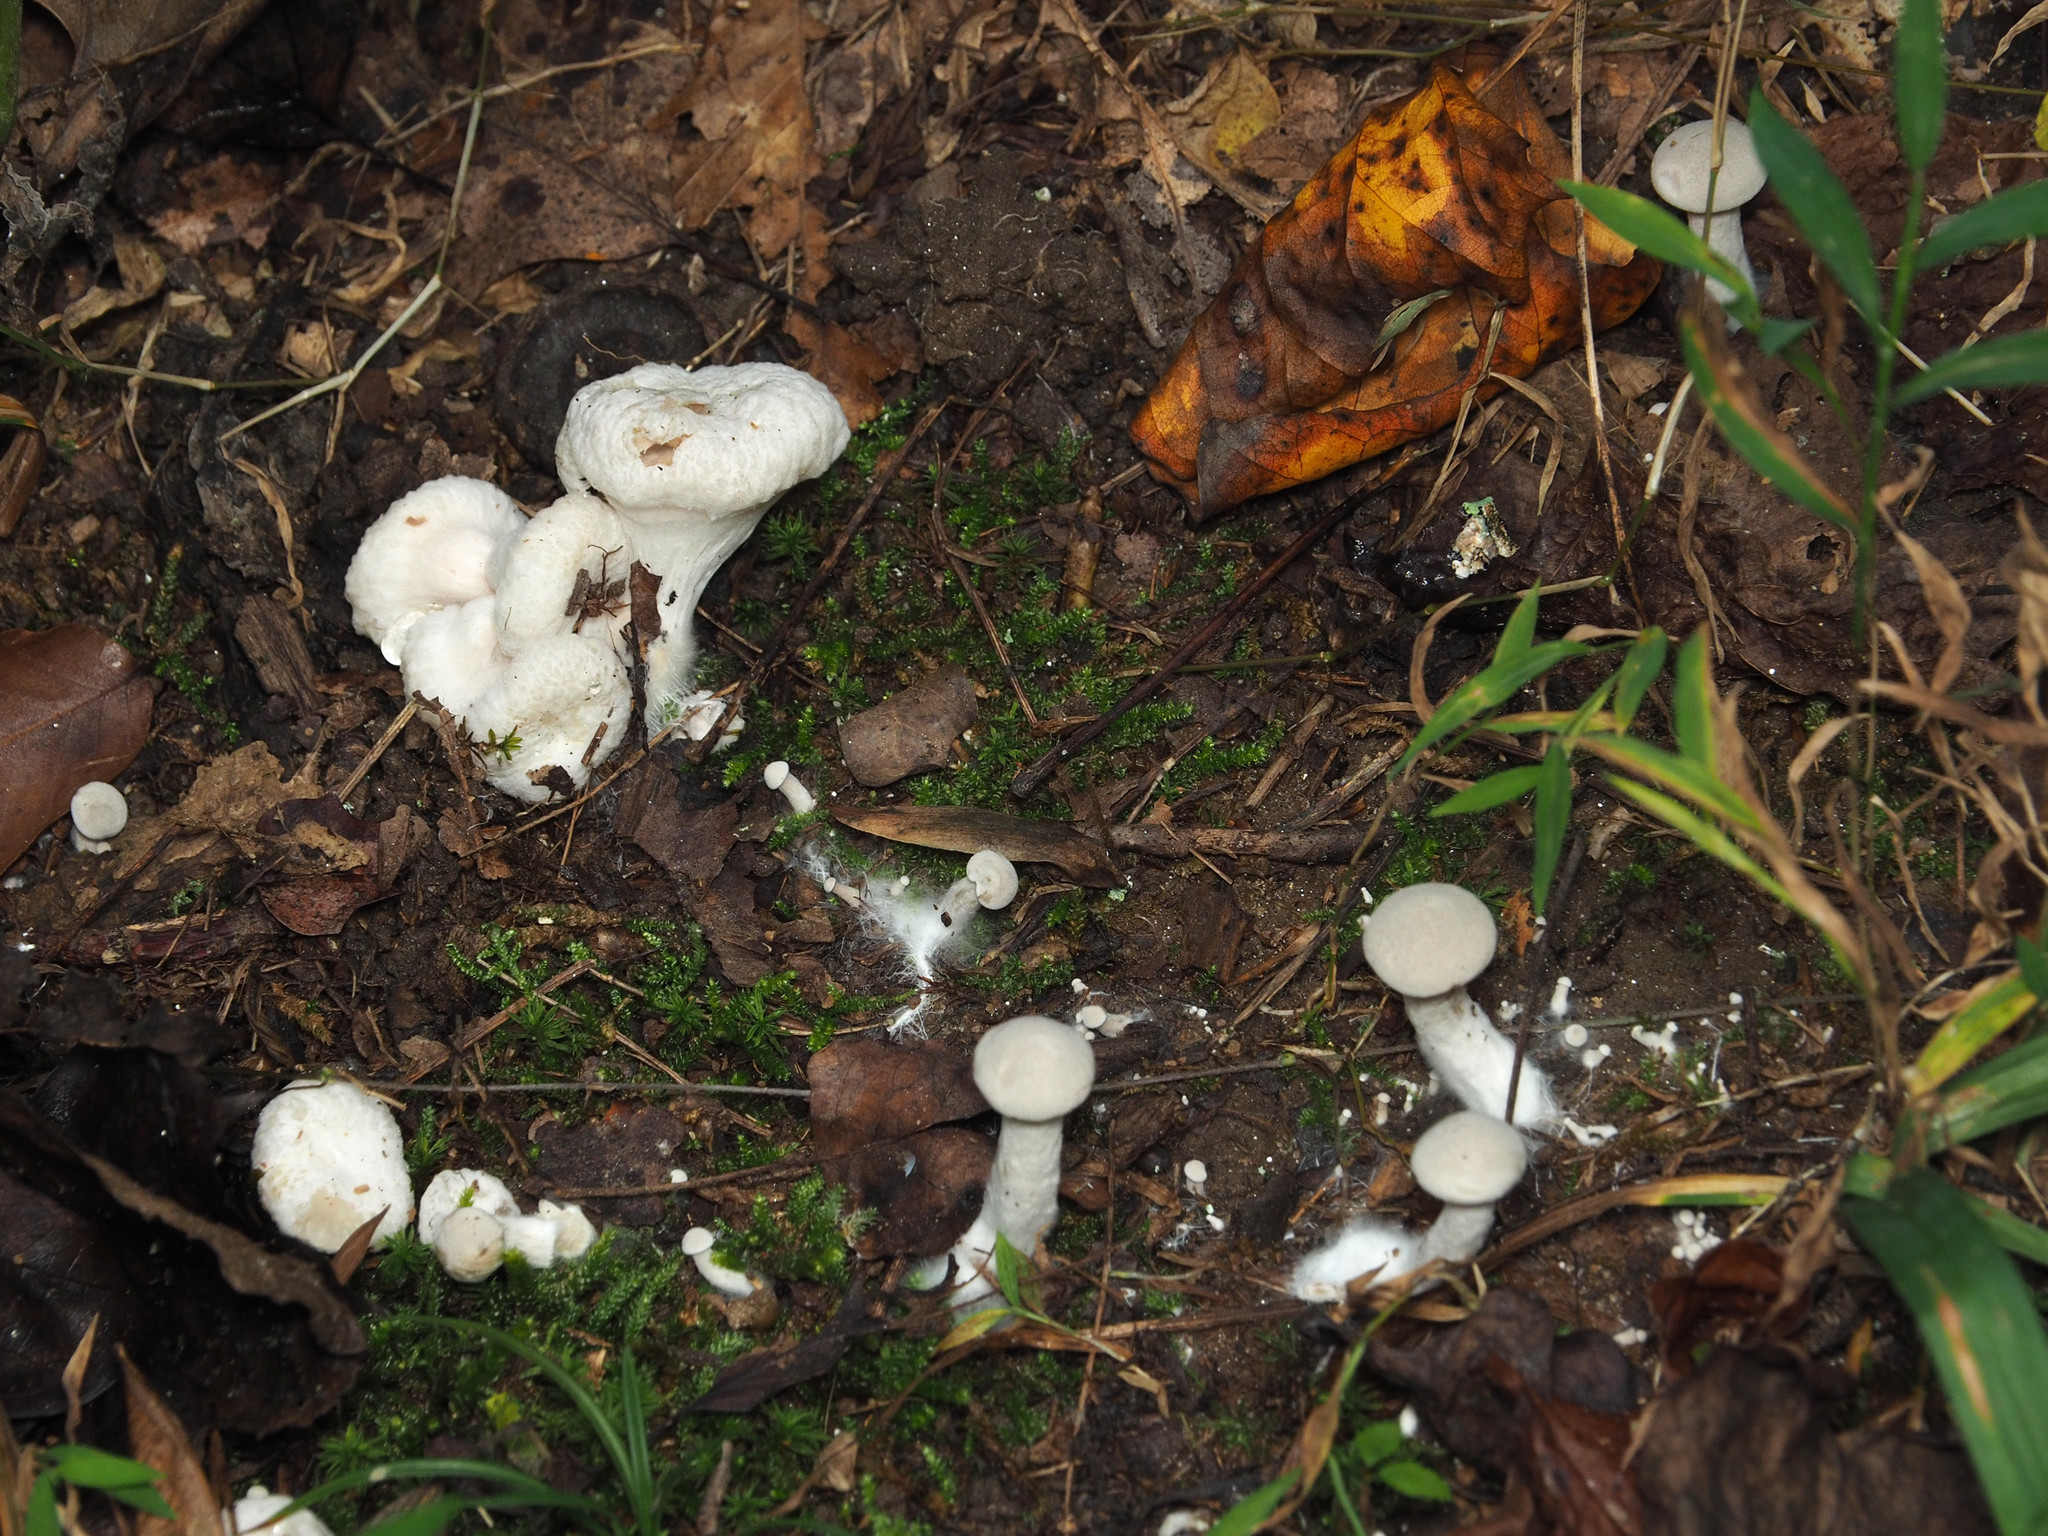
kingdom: Fungi
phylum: Basidiomycota
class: Agaricomycetes
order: Agaricales
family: Entolomataceae
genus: Entoloma
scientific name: Entoloma abortivum
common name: Aborted entoloma
